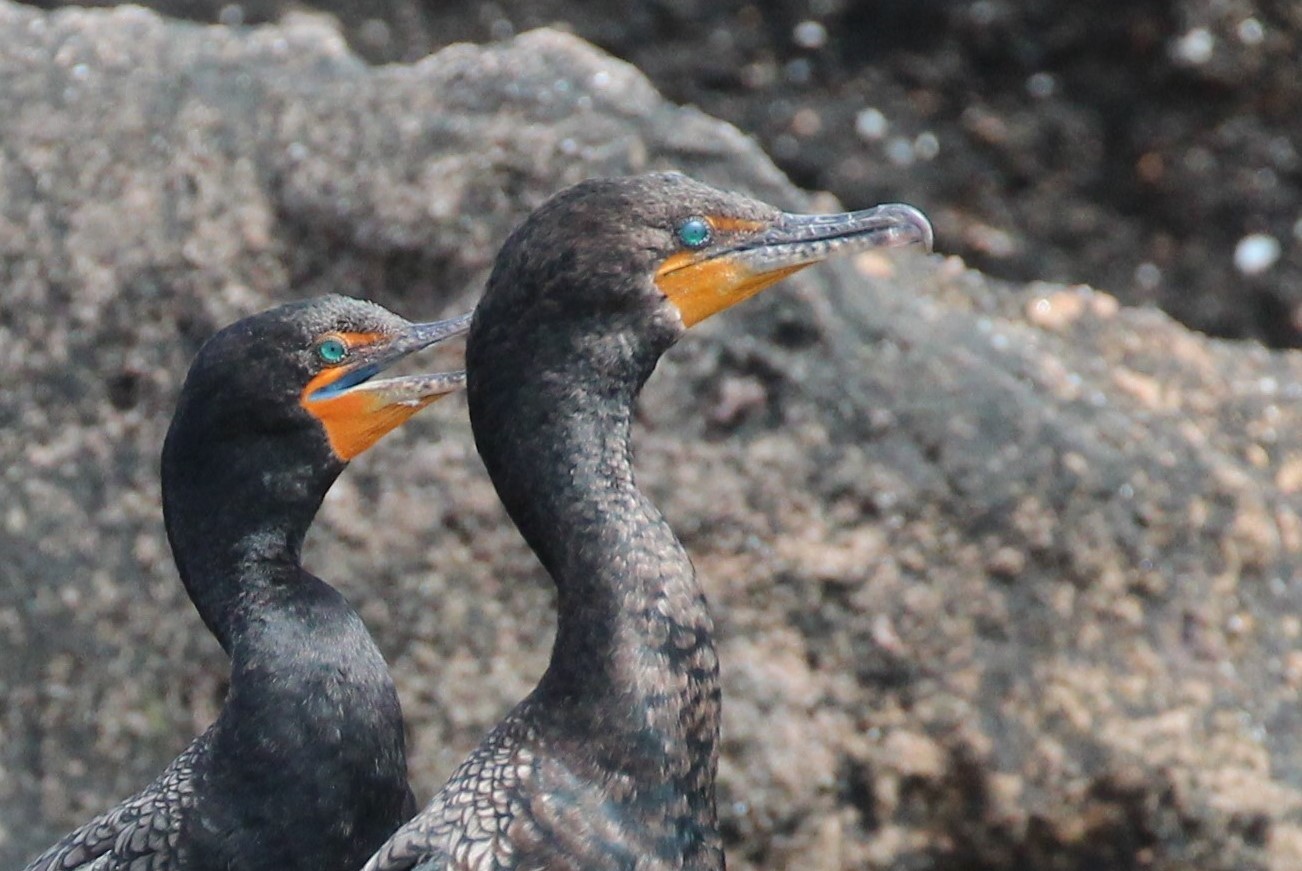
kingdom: Animalia
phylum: Chordata
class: Aves
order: Suliformes
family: Phalacrocoracidae
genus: Phalacrocorax
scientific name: Phalacrocorax auritus
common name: Double-crested cormorant
